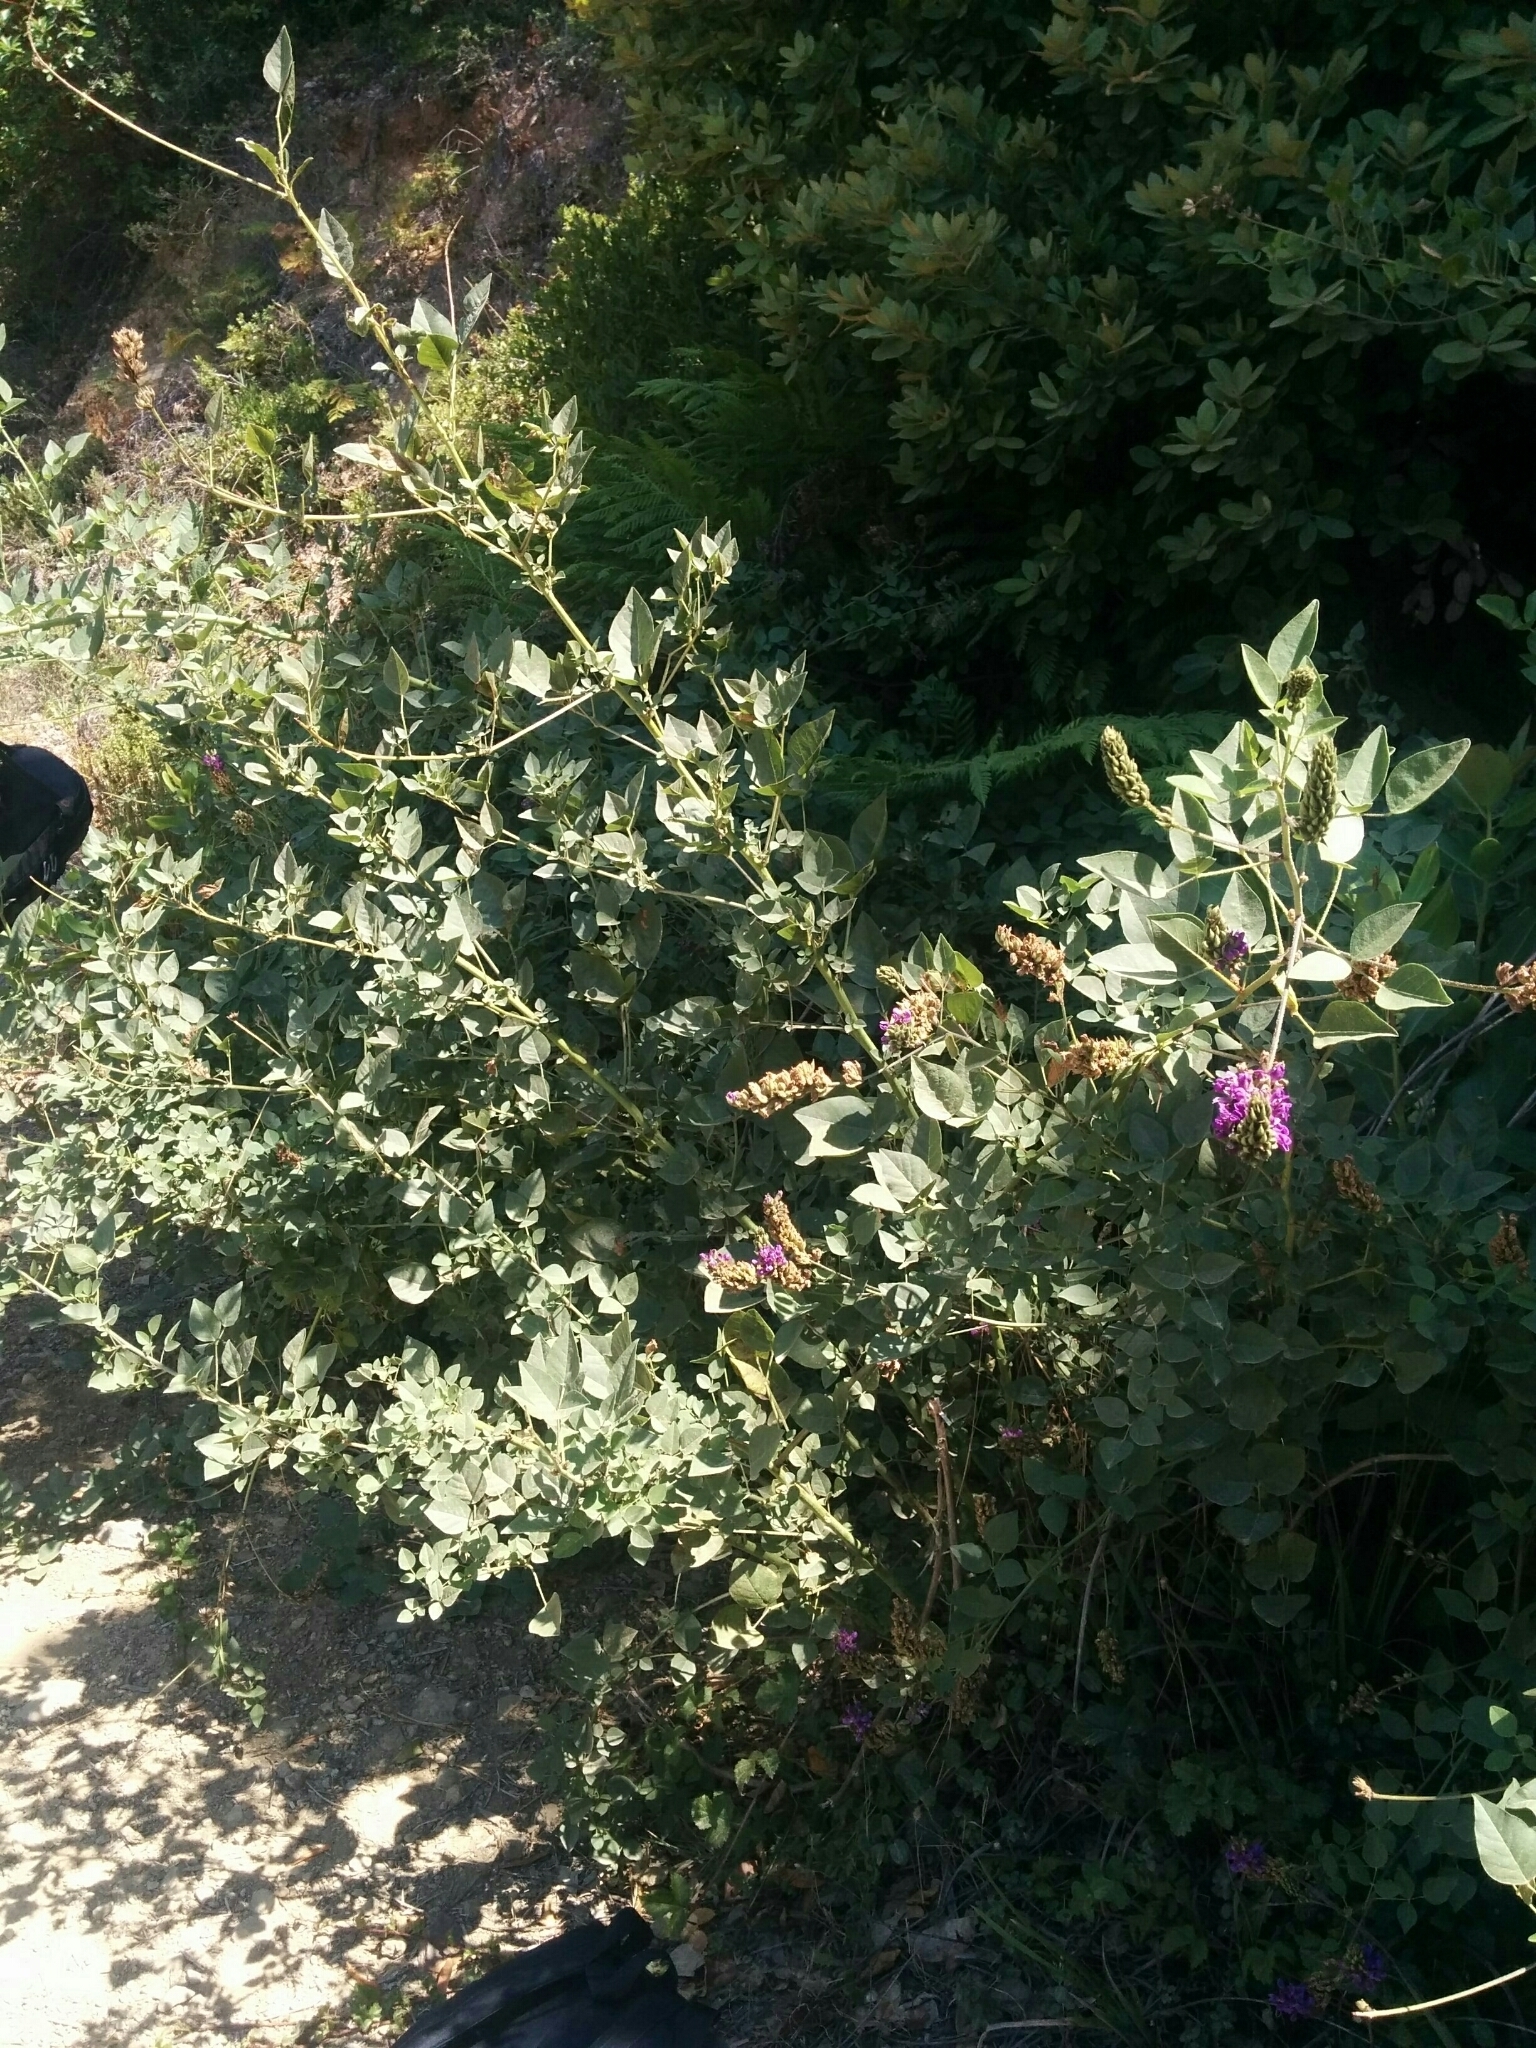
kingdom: Plantae
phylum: Tracheophyta
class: Magnoliopsida
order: Fabales
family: Fabaceae
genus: Hoita
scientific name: Hoita macrostachya
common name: Leatherroot
